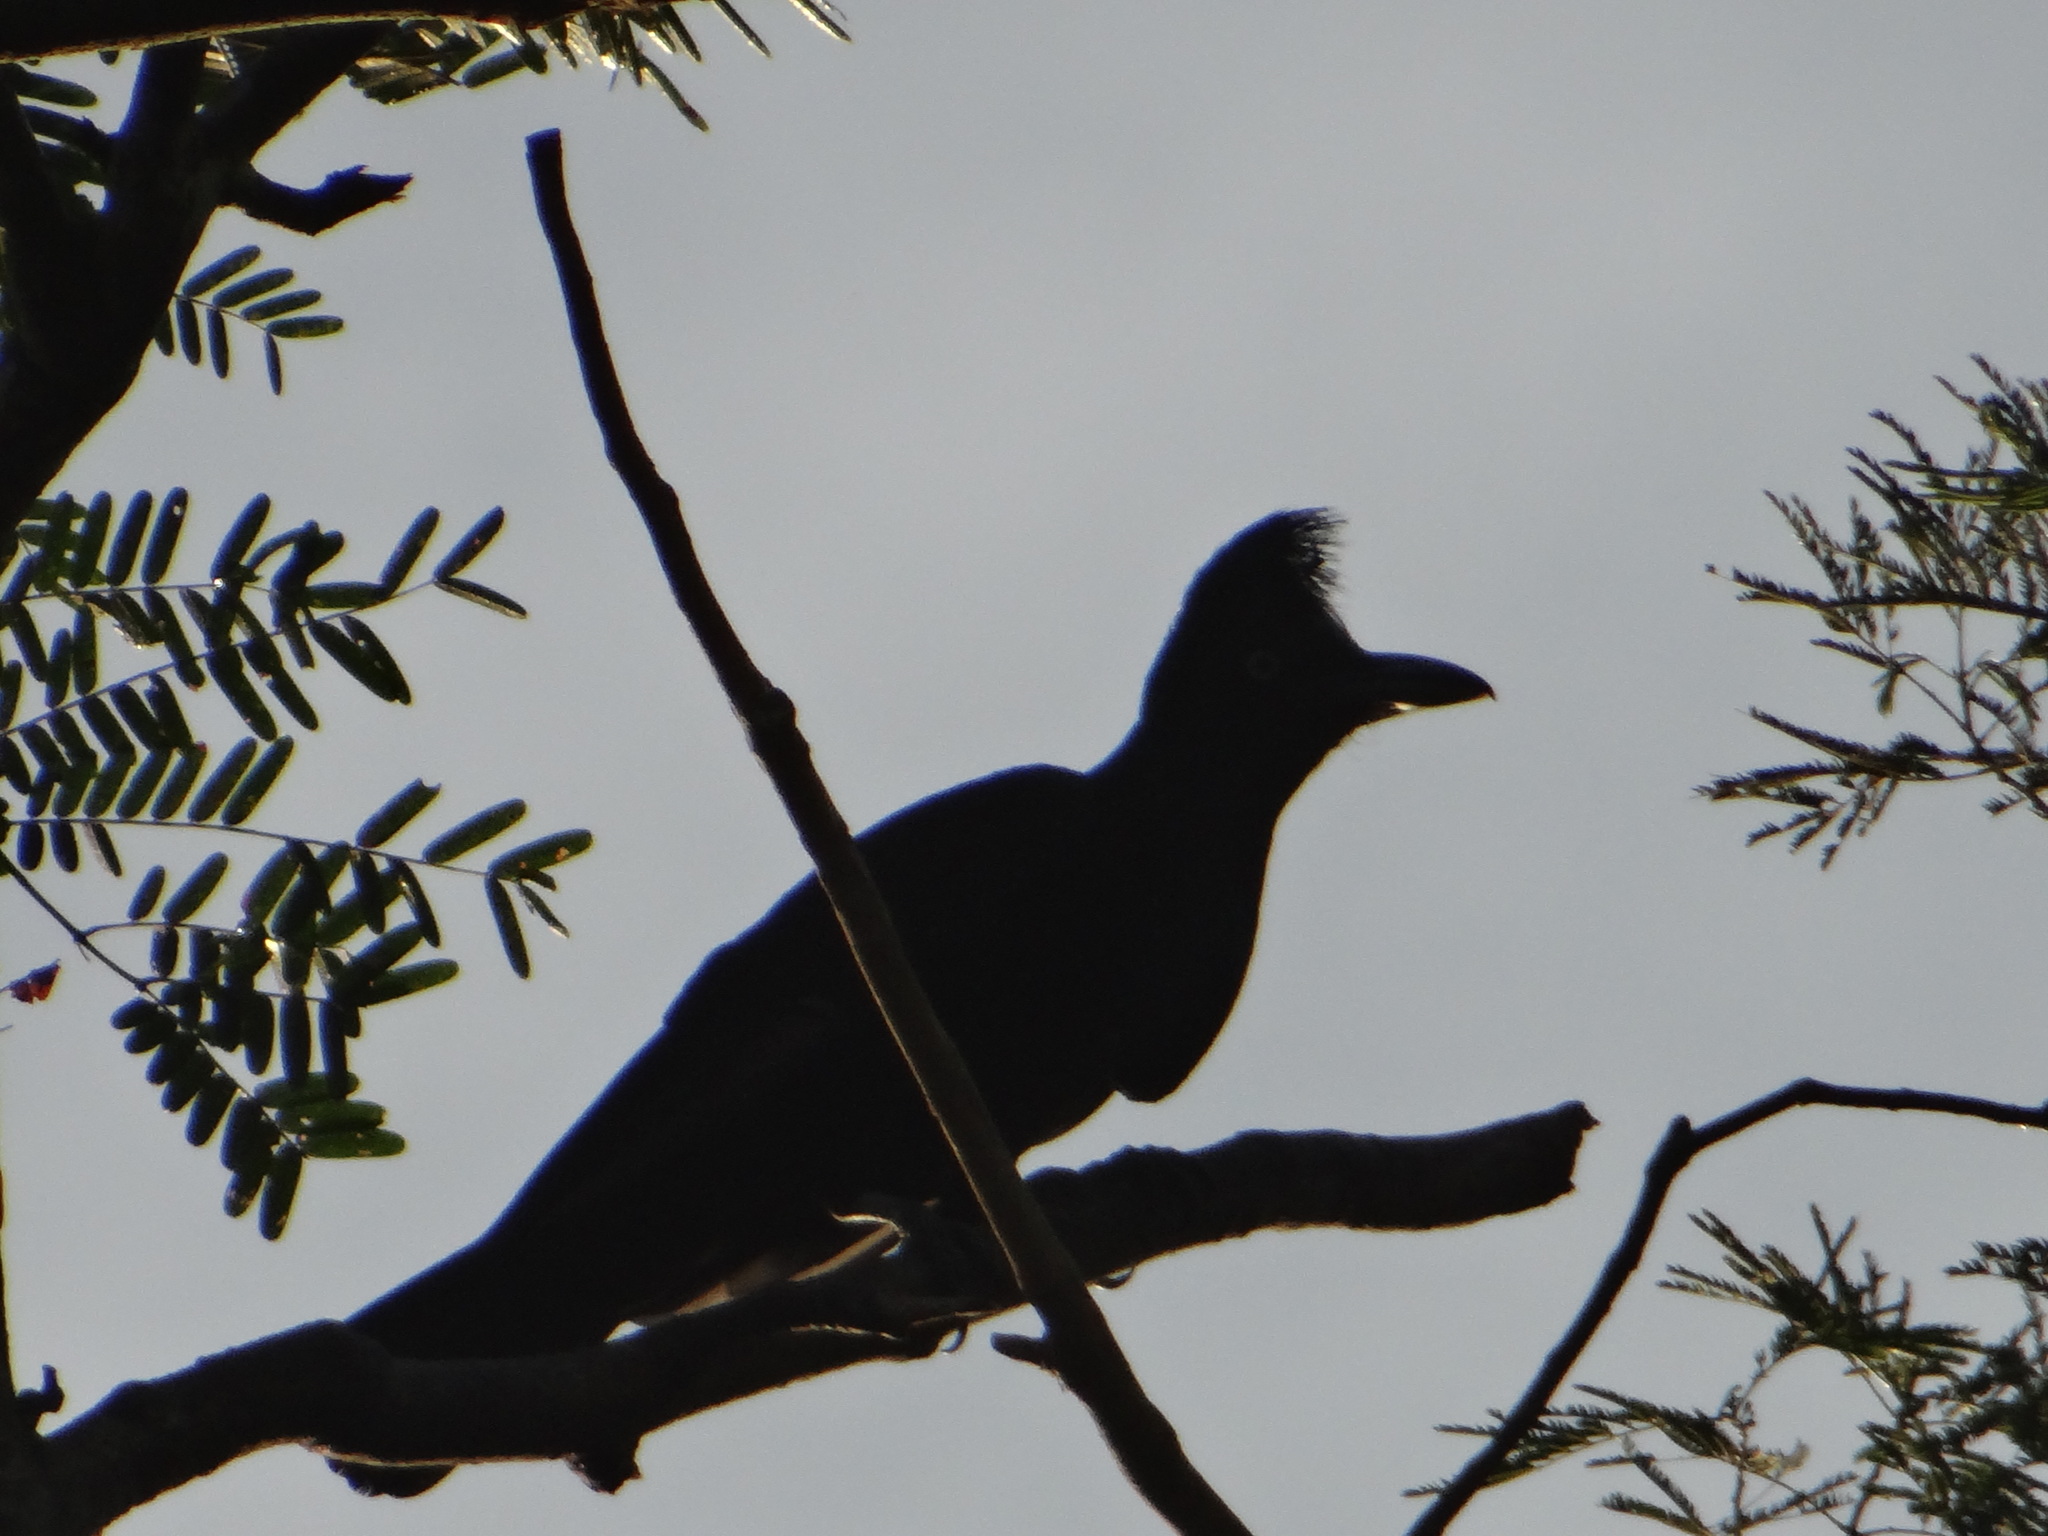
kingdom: Animalia
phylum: Chordata
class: Aves
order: Passeriformes
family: Cotingidae
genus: Cephalopterus
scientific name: Cephalopterus ornatus
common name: Amazonian umbrellabird
